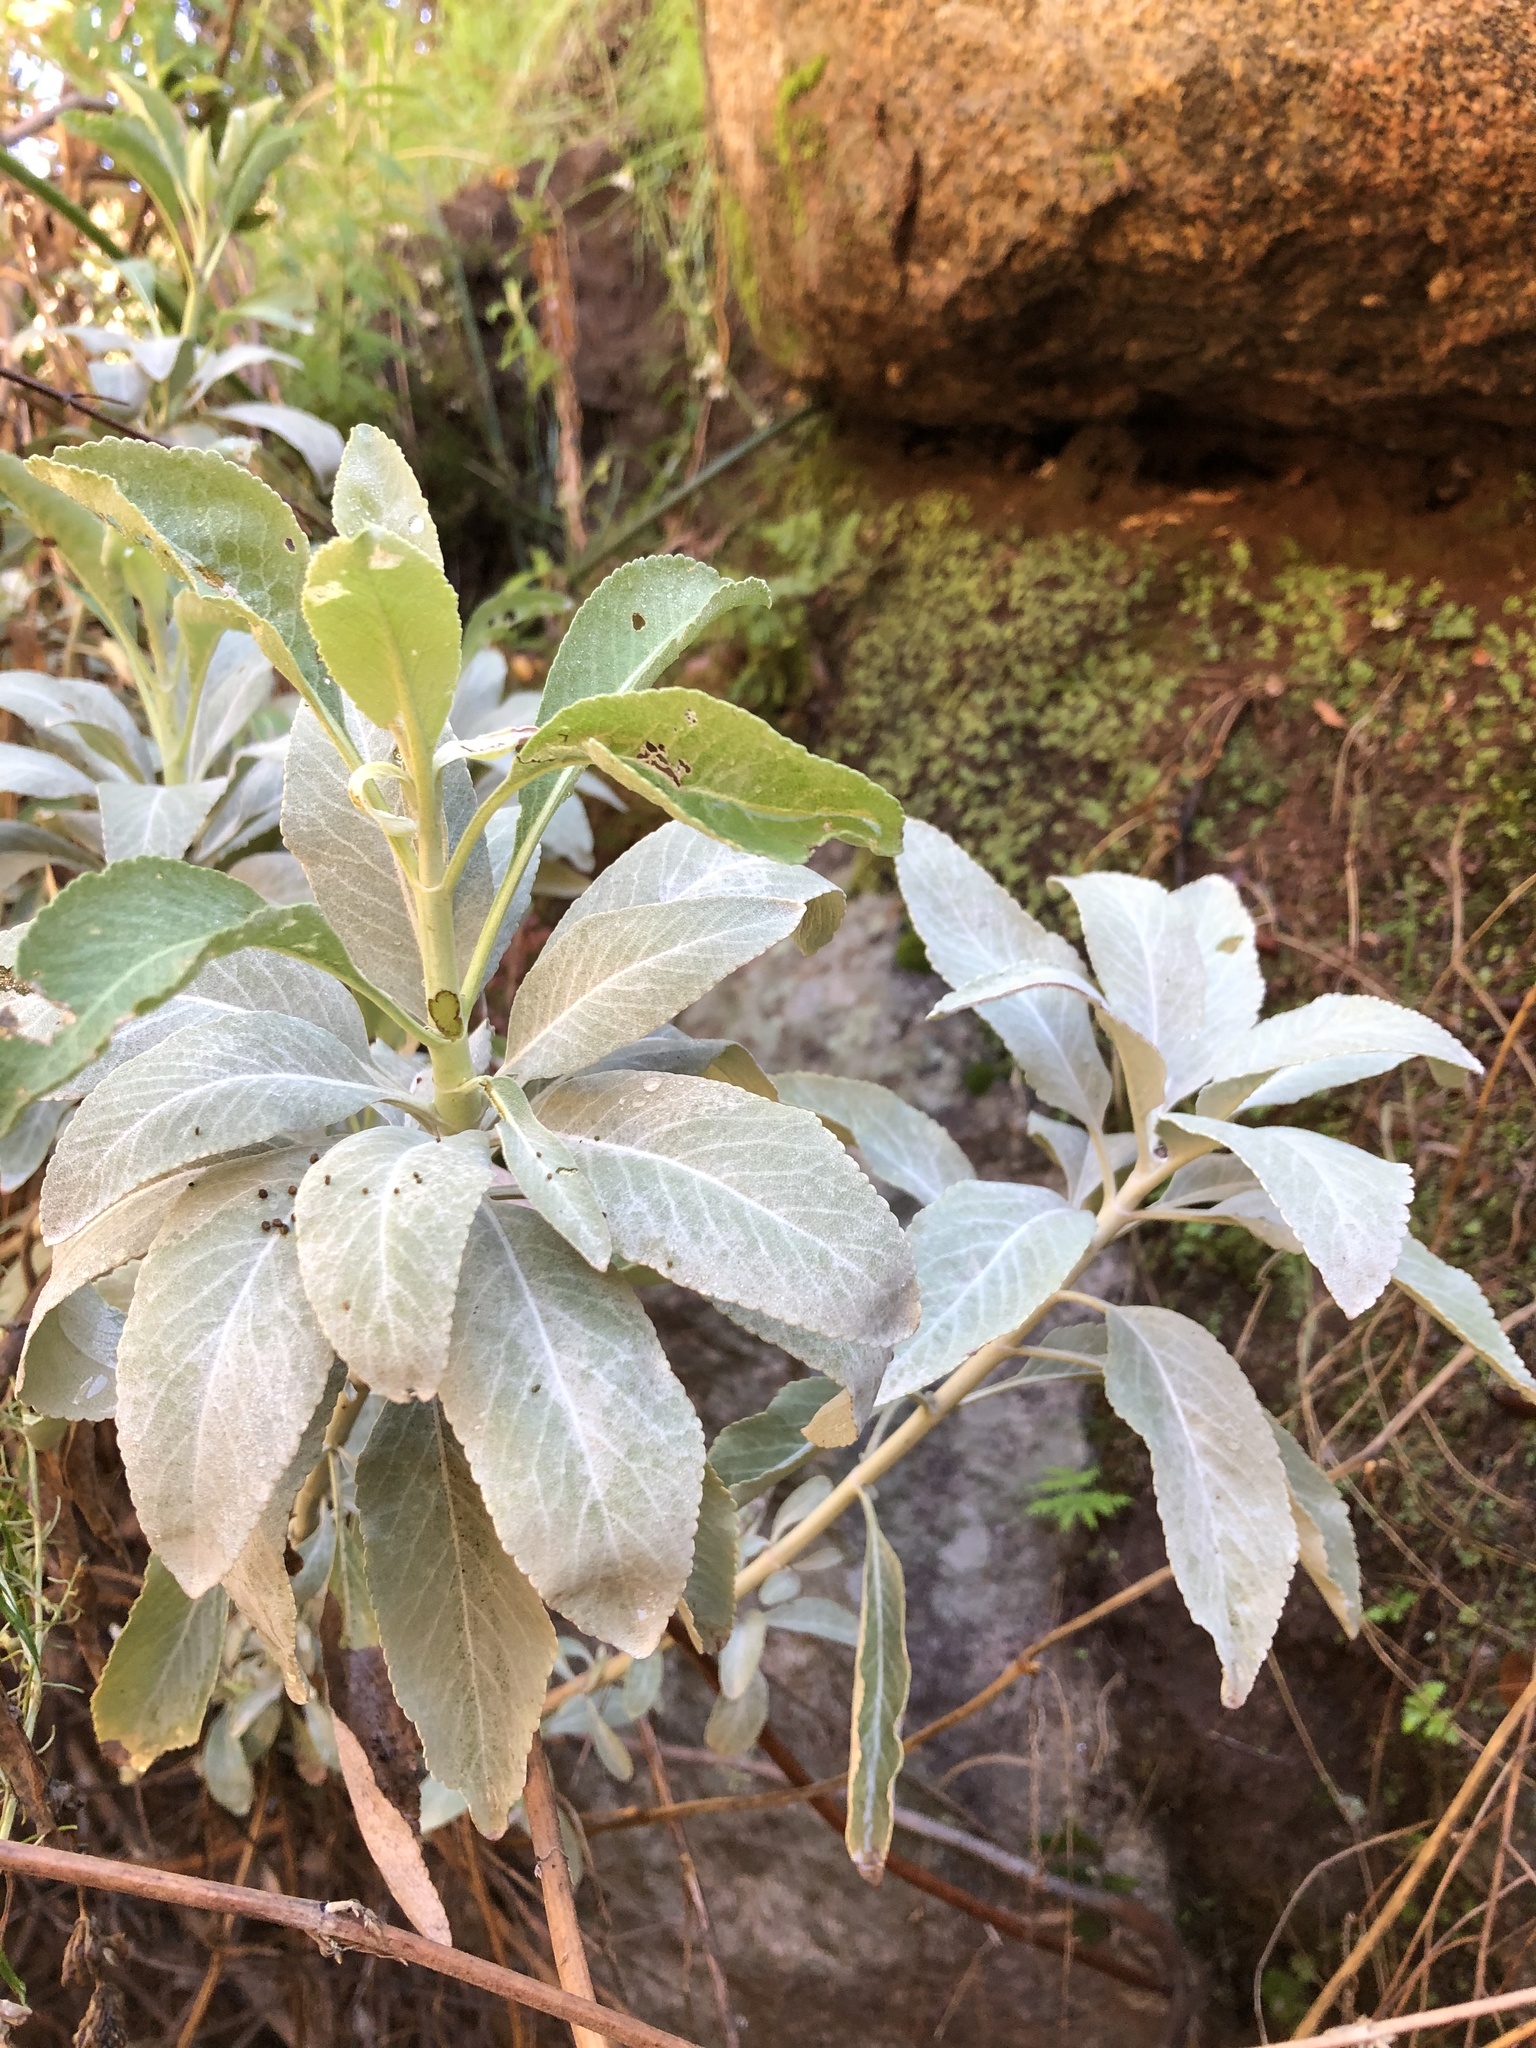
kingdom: Plantae
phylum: Tracheophyta
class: Magnoliopsida
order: Lamiales
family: Lamiaceae
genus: Salvia
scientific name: Salvia apiana
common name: White sage
